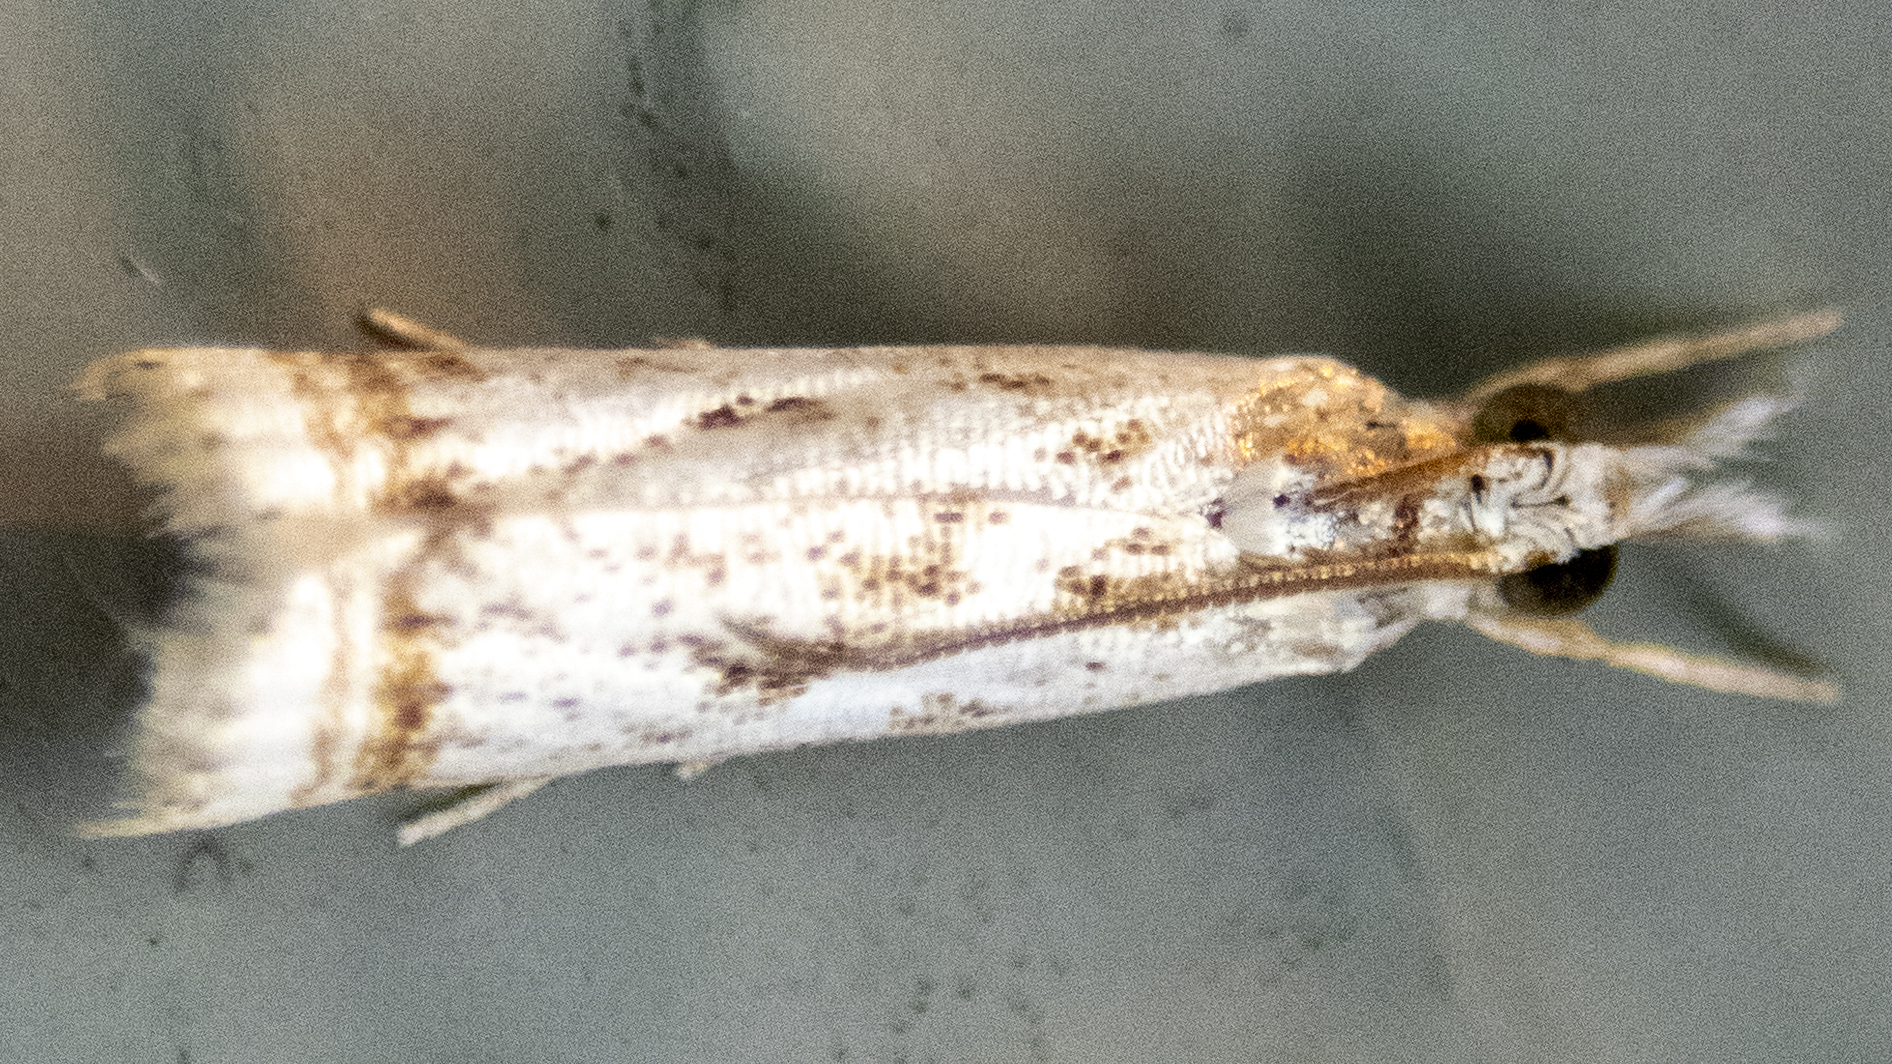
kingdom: Animalia
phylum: Arthropoda
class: Insecta
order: Lepidoptera
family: Crambidae
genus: Microcrambus
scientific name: Microcrambus elegans
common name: Elegant grass-veneer
